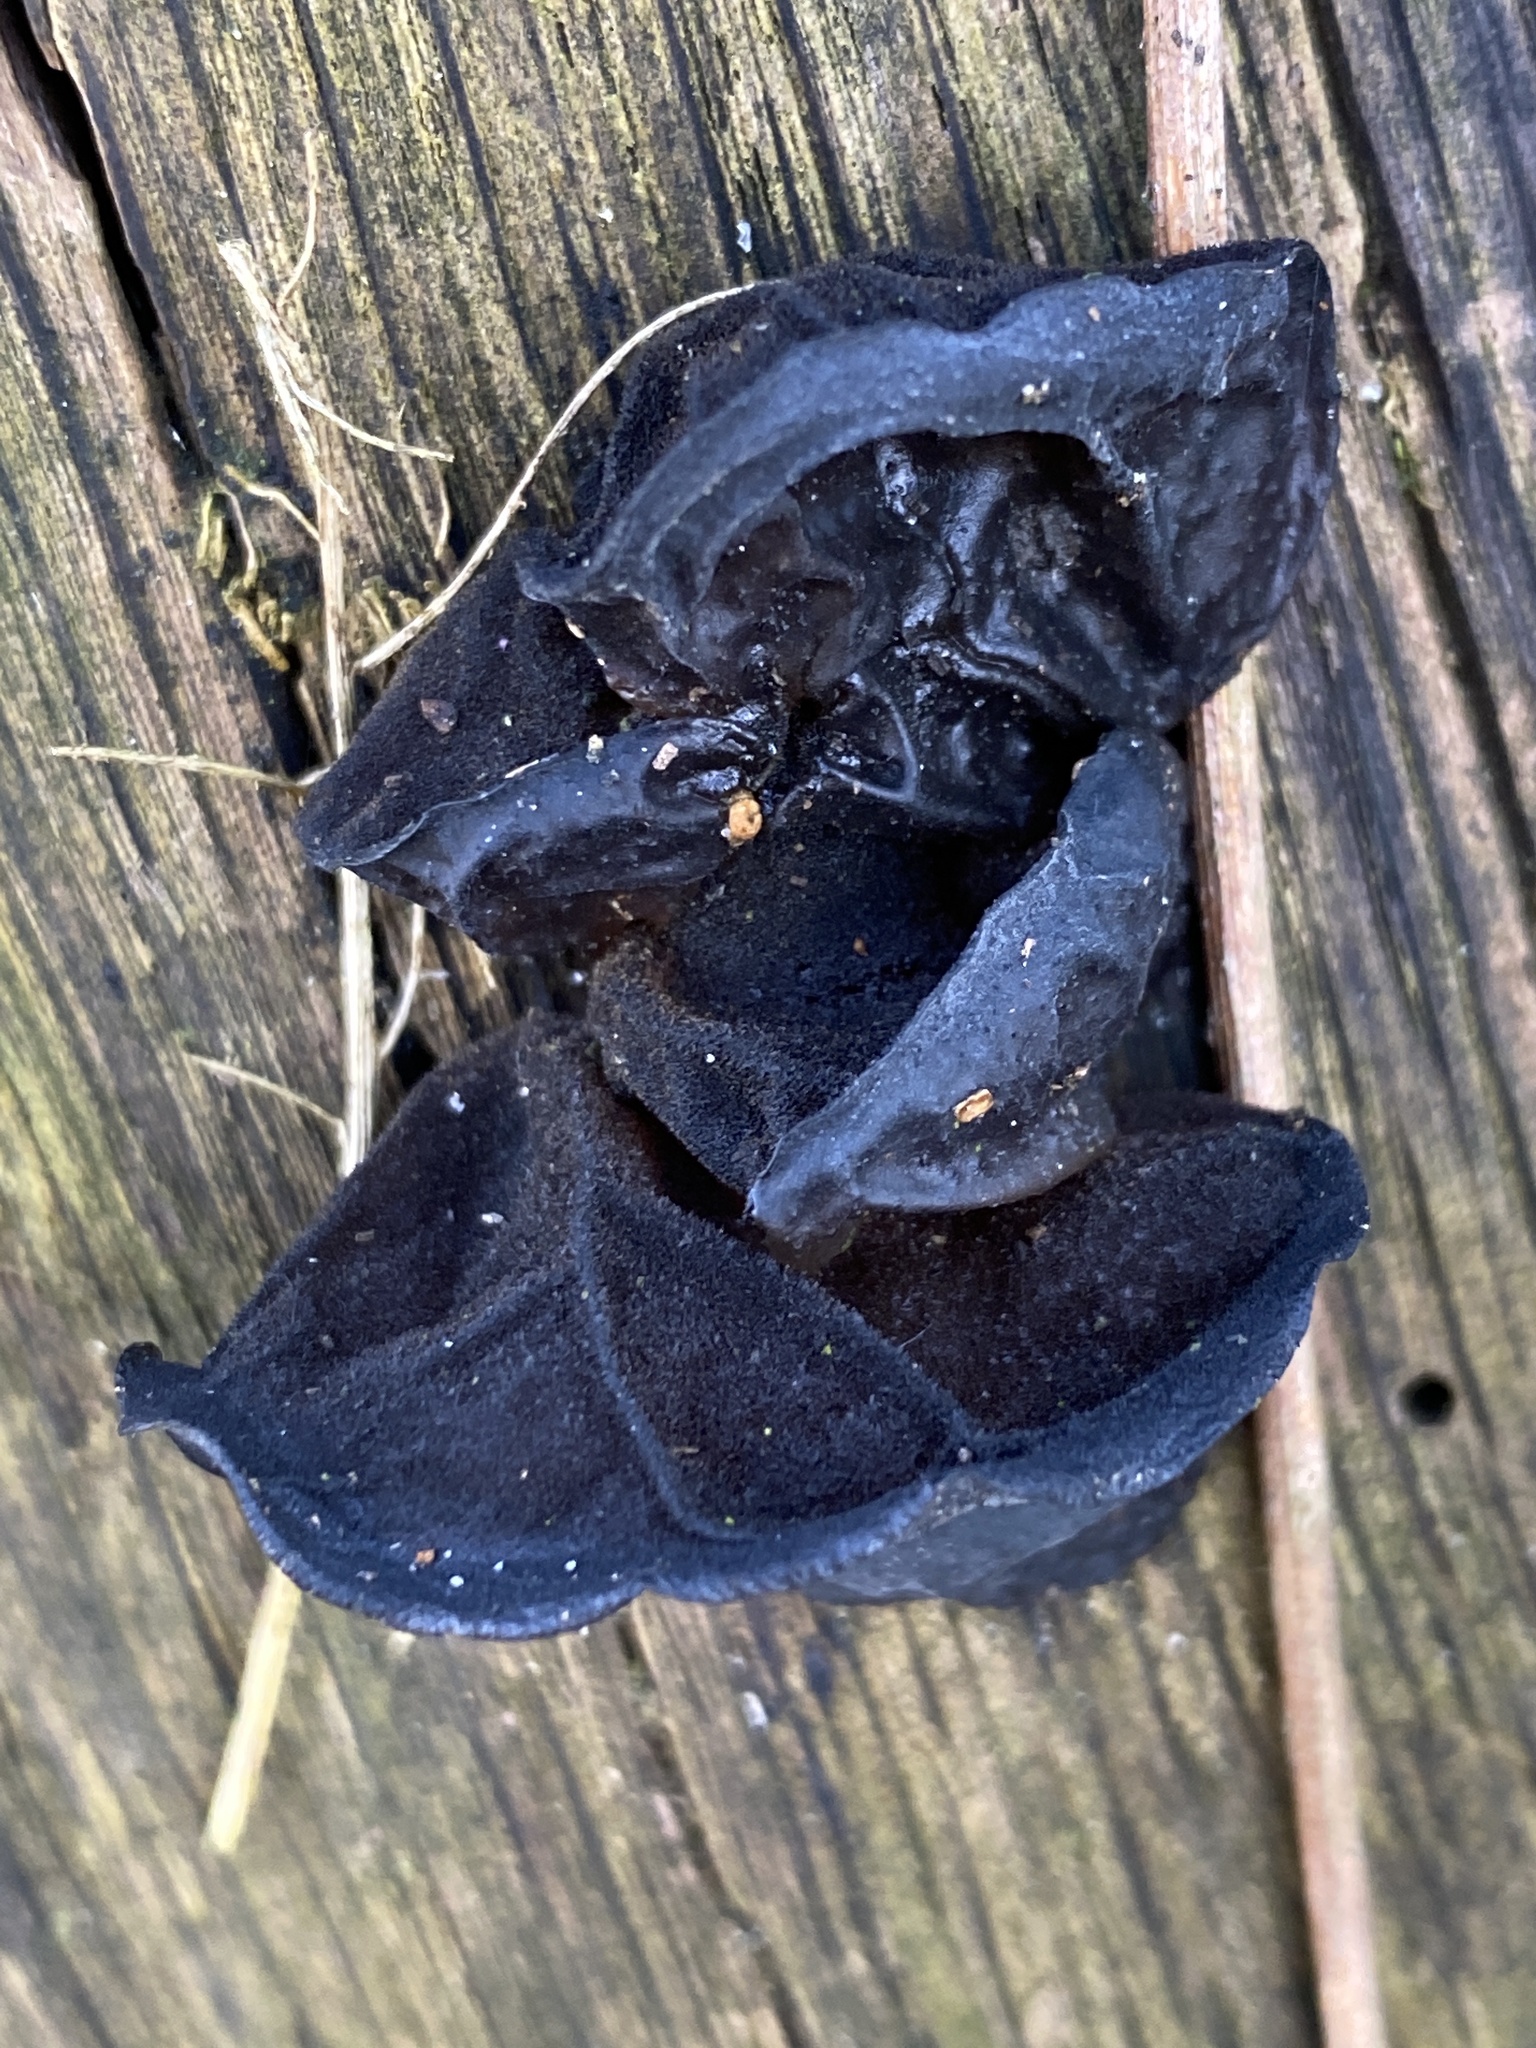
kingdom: Fungi
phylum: Basidiomycota
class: Agaricomycetes
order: Auriculariales
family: Auriculariaceae
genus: Exidia
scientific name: Exidia glandulosa
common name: Witches' butter
